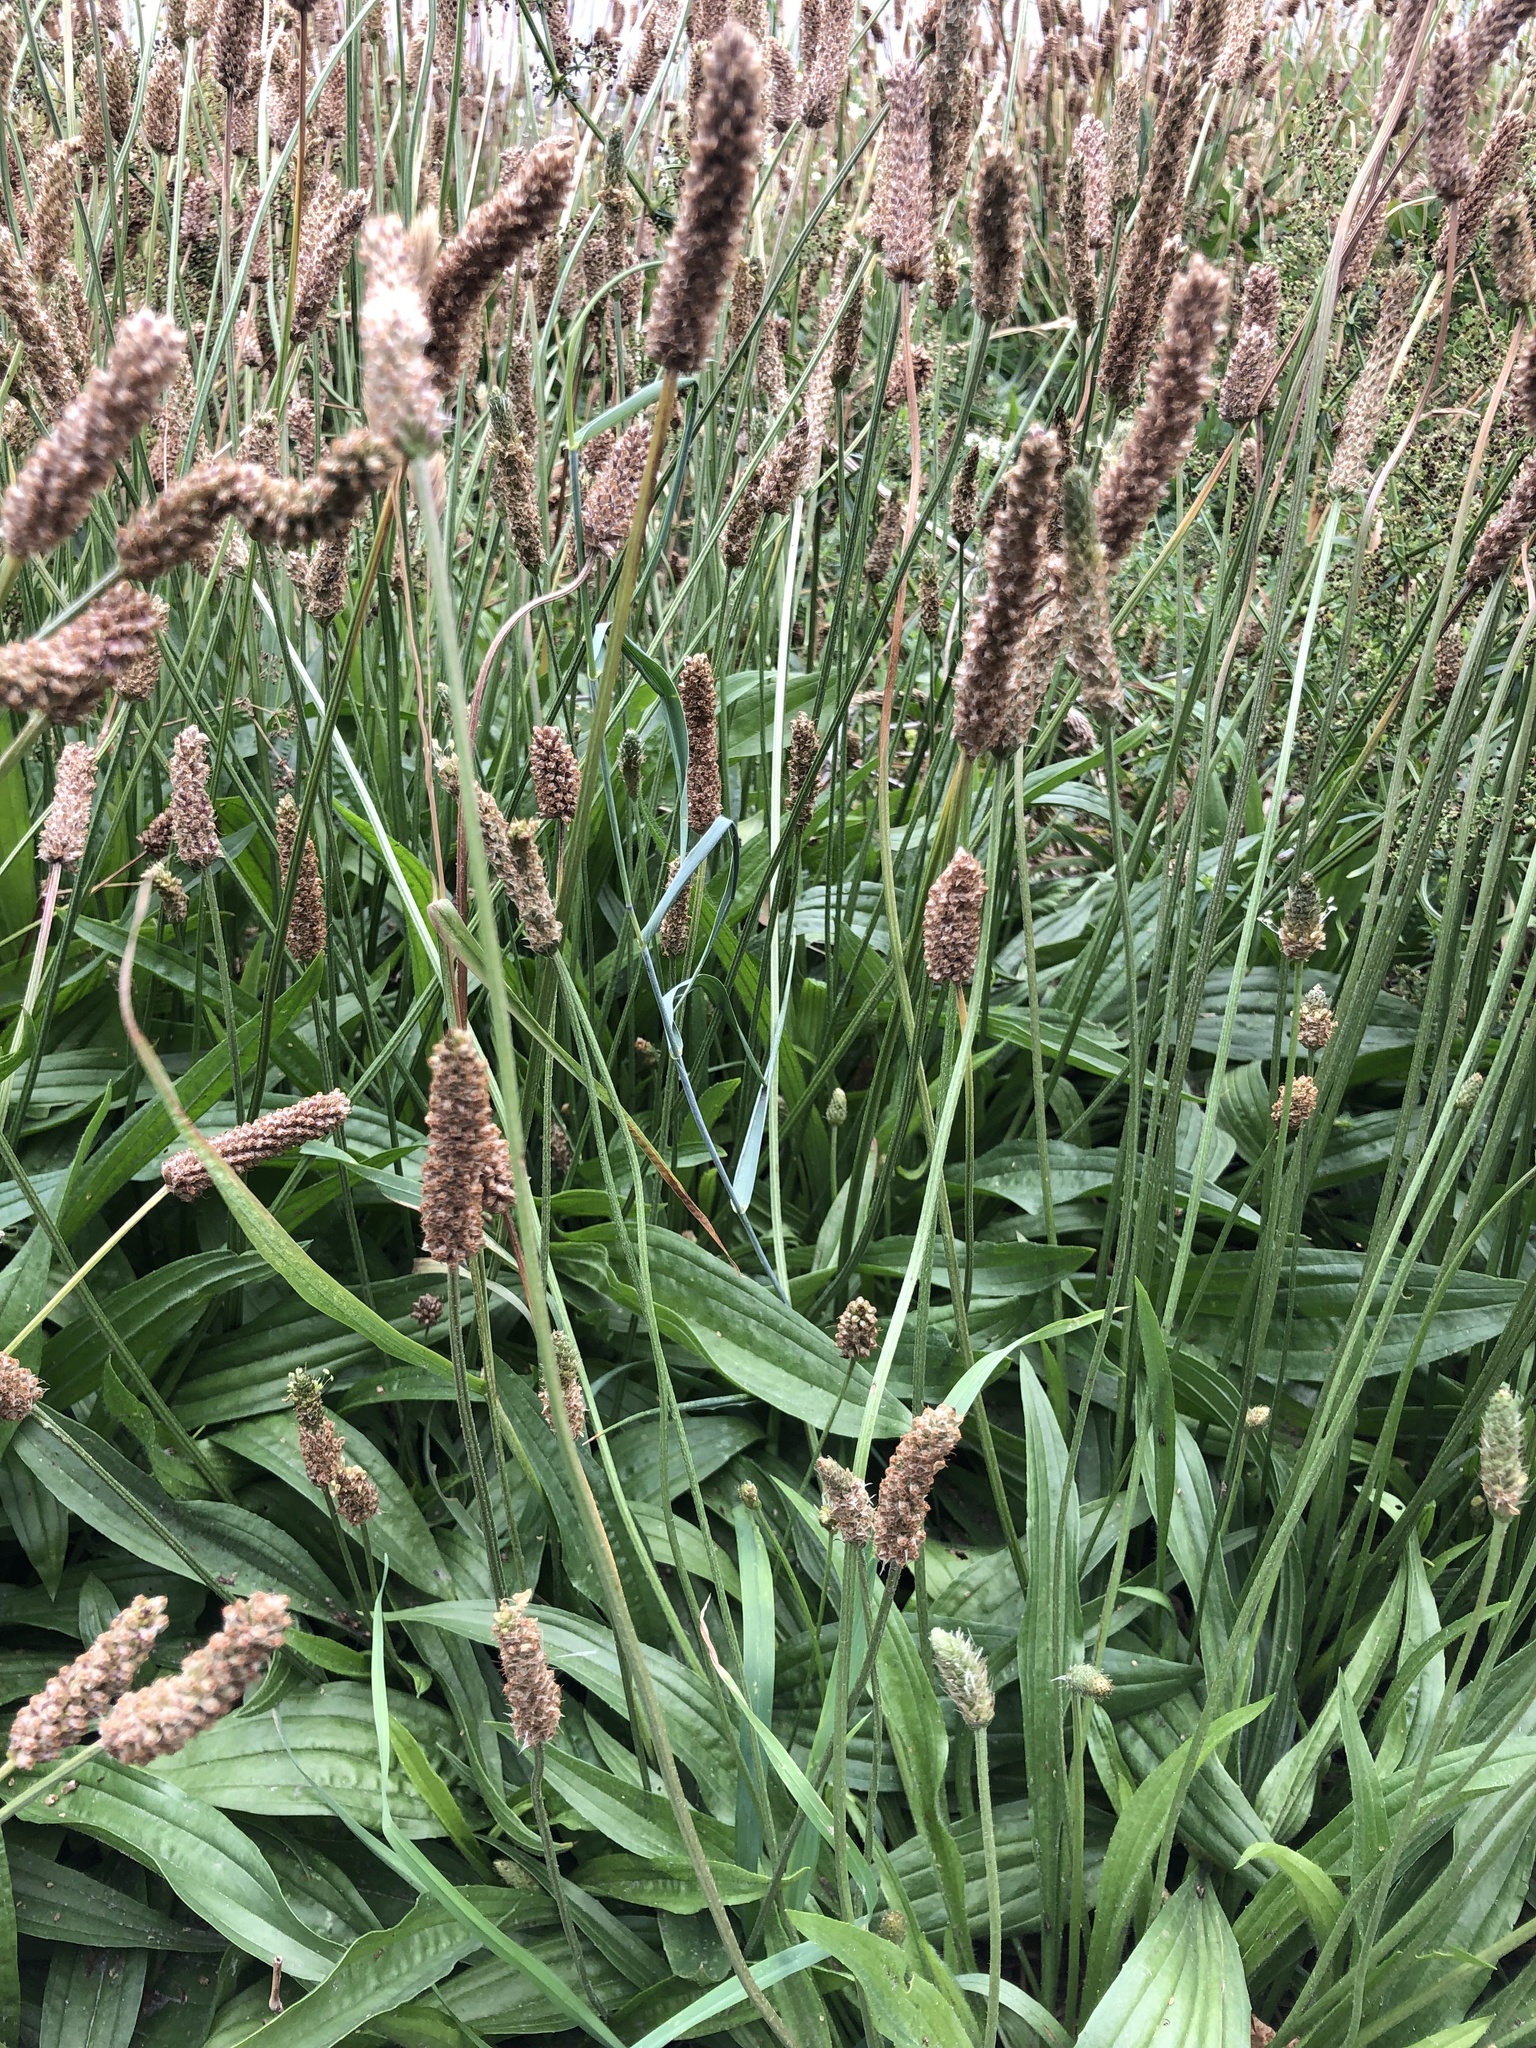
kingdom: Plantae
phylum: Tracheophyta
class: Magnoliopsida
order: Lamiales
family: Plantaginaceae
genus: Plantago
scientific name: Plantago lanceolata
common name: Ribwort plantain
